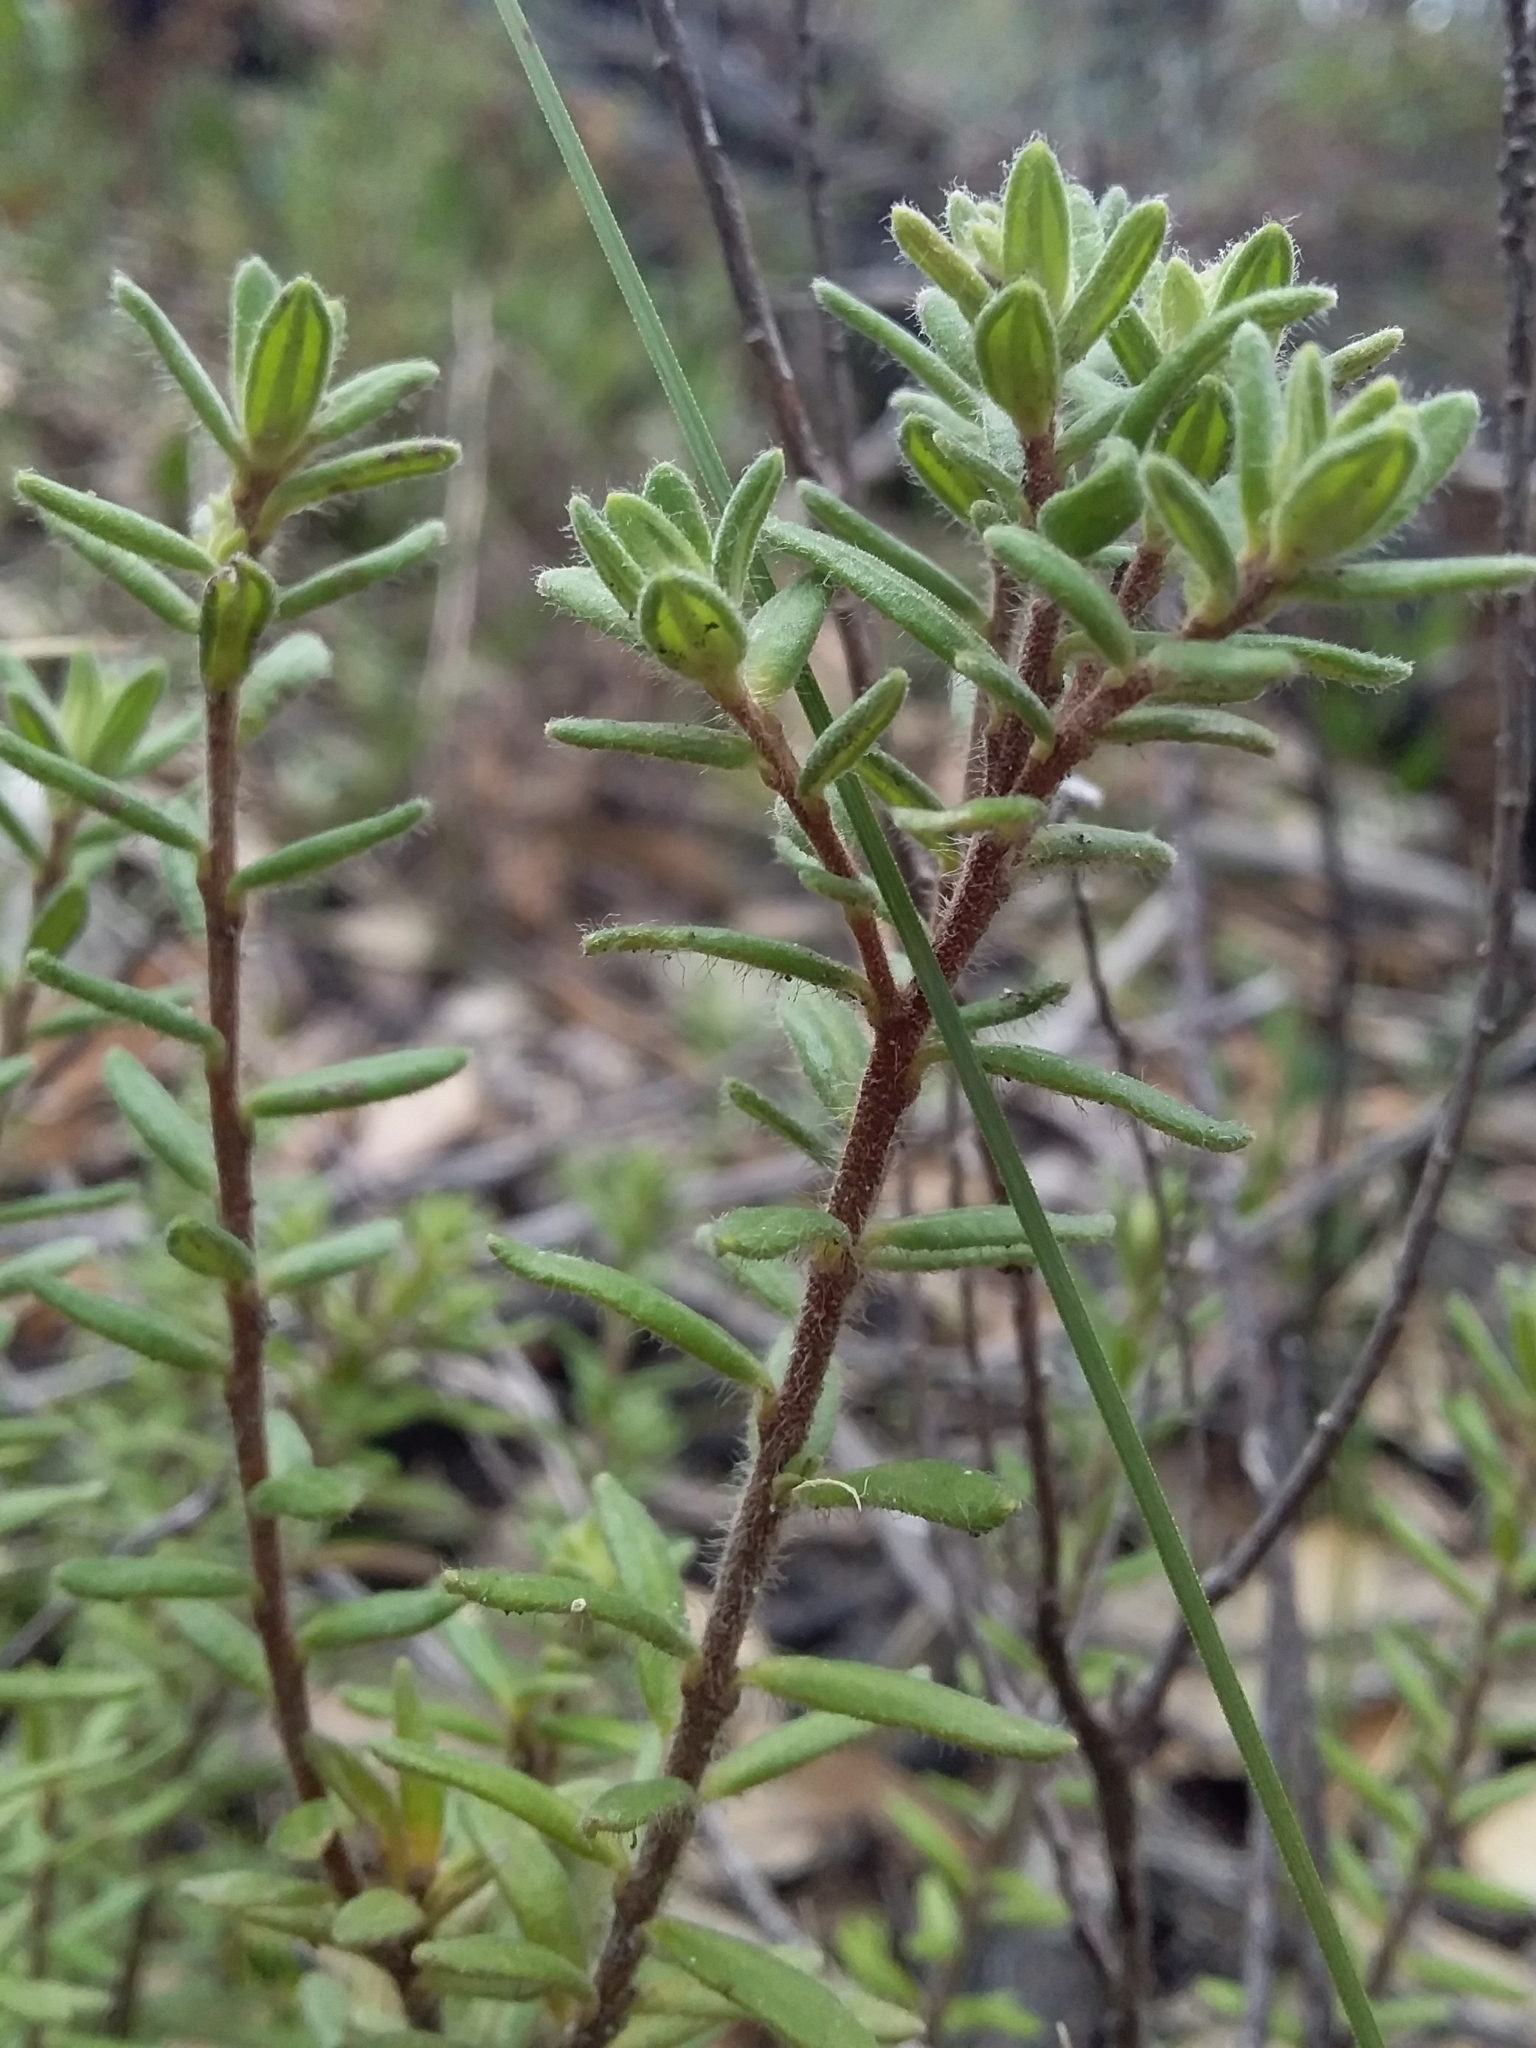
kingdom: Plantae
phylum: Tracheophyta
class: Magnoliopsida
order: Dilleniales
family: Dilleniaceae
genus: Hibbertia
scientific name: Hibbertia crinita
